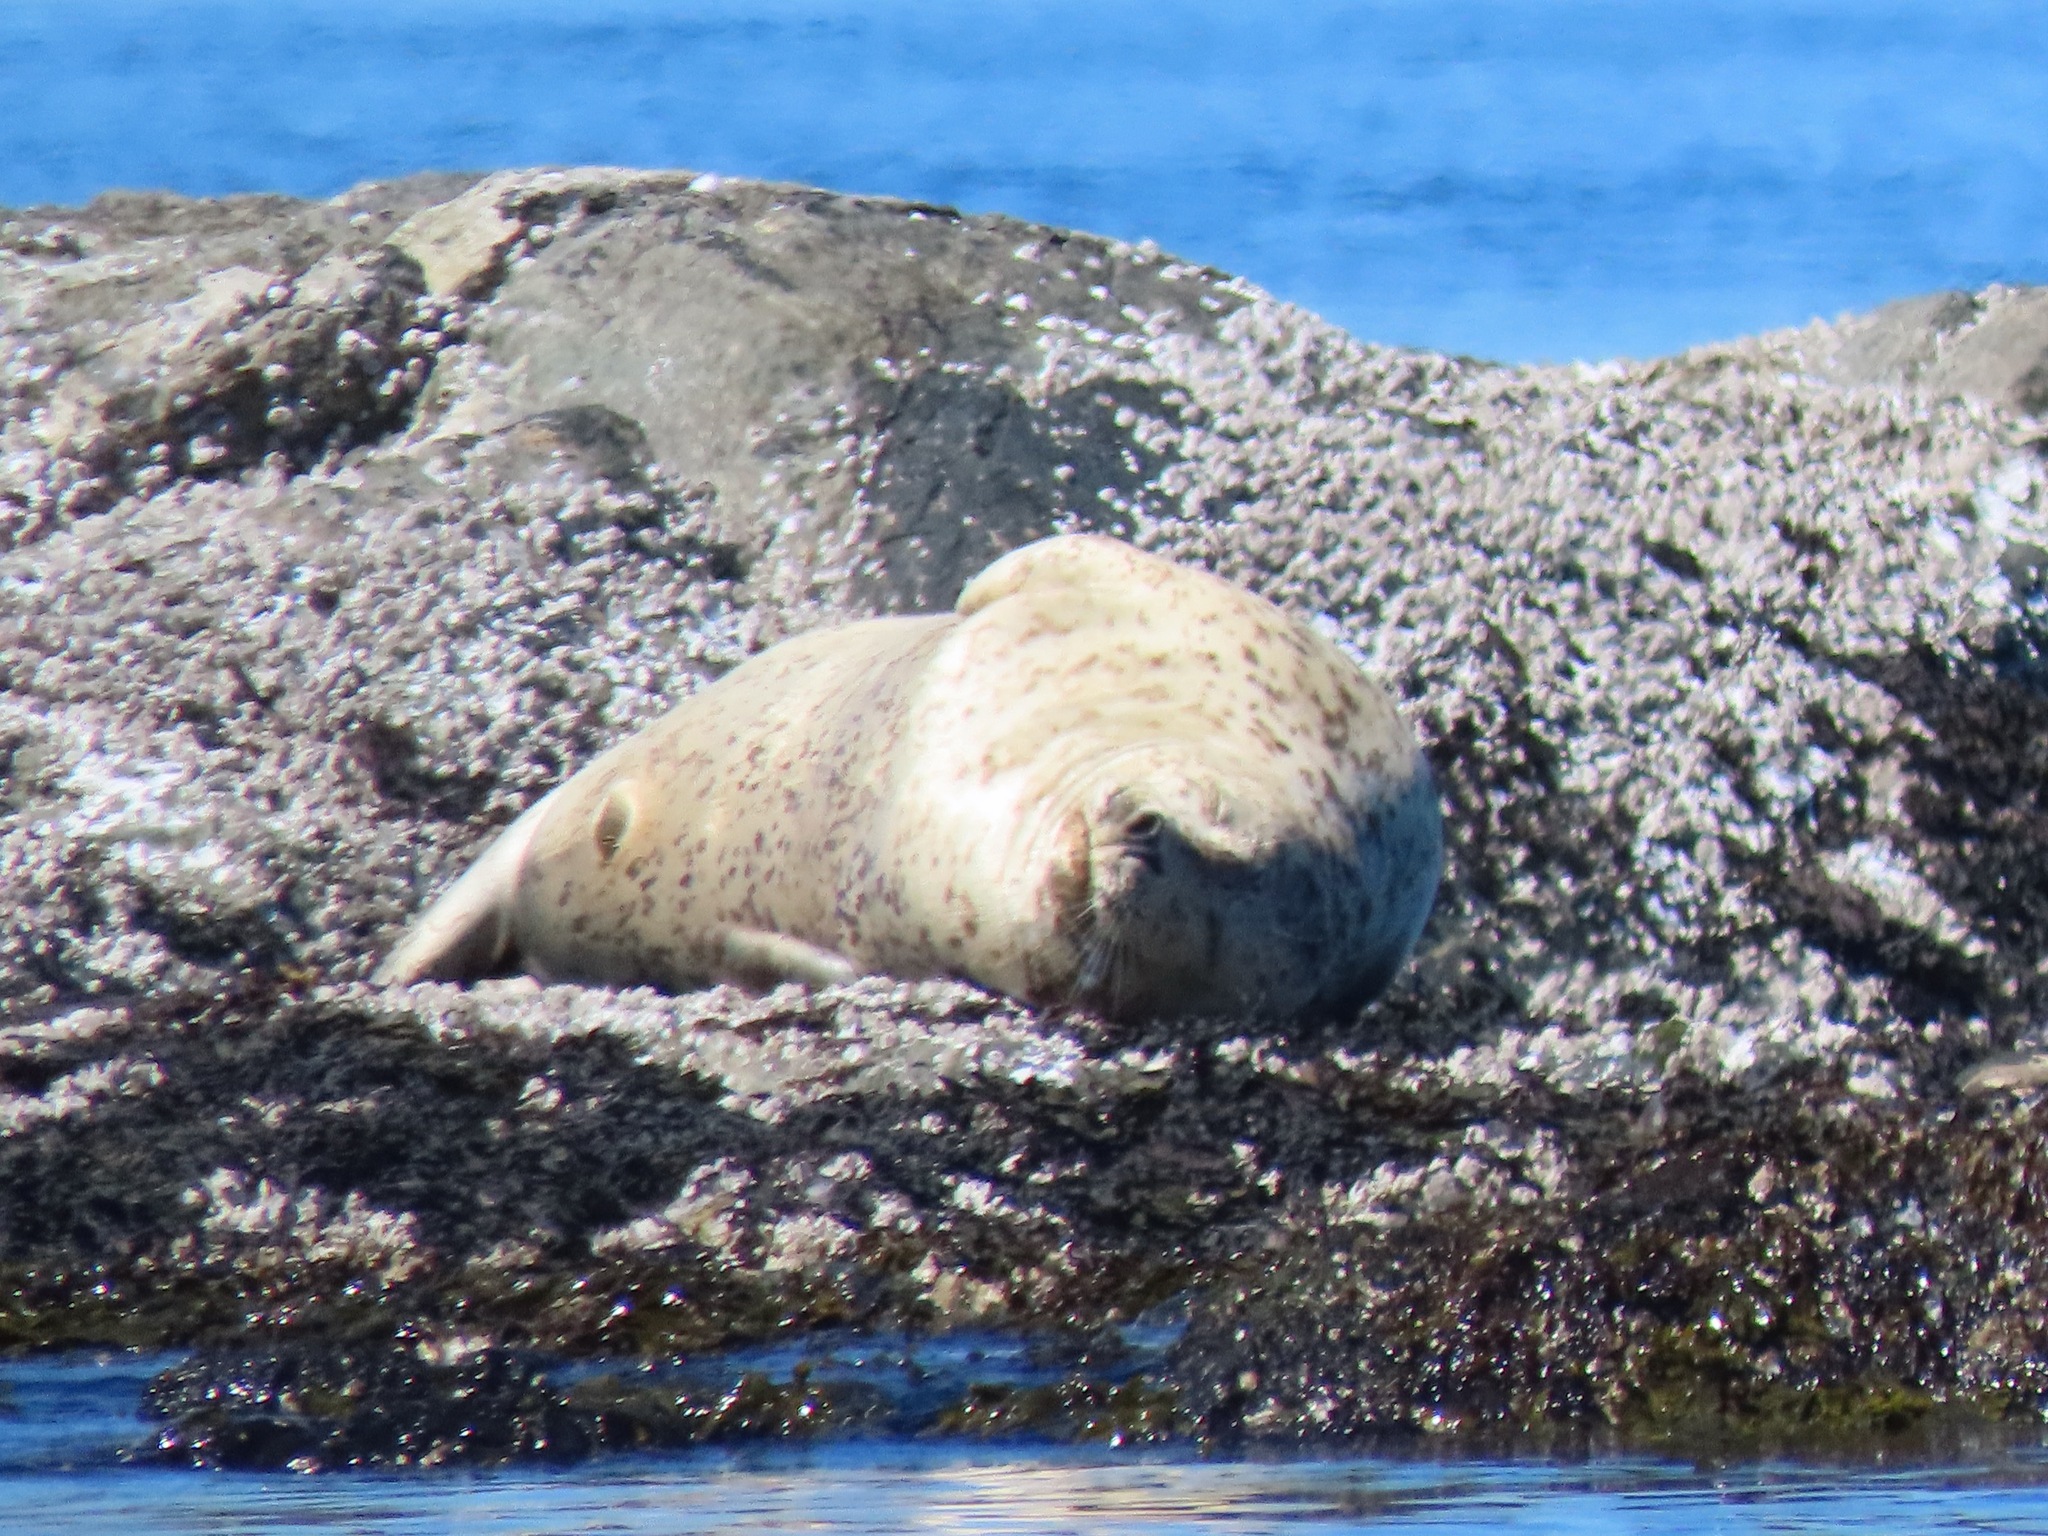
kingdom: Animalia
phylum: Chordata
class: Mammalia
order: Carnivora
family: Phocidae
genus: Phoca
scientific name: Phoca vitulina
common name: Harbor seal
